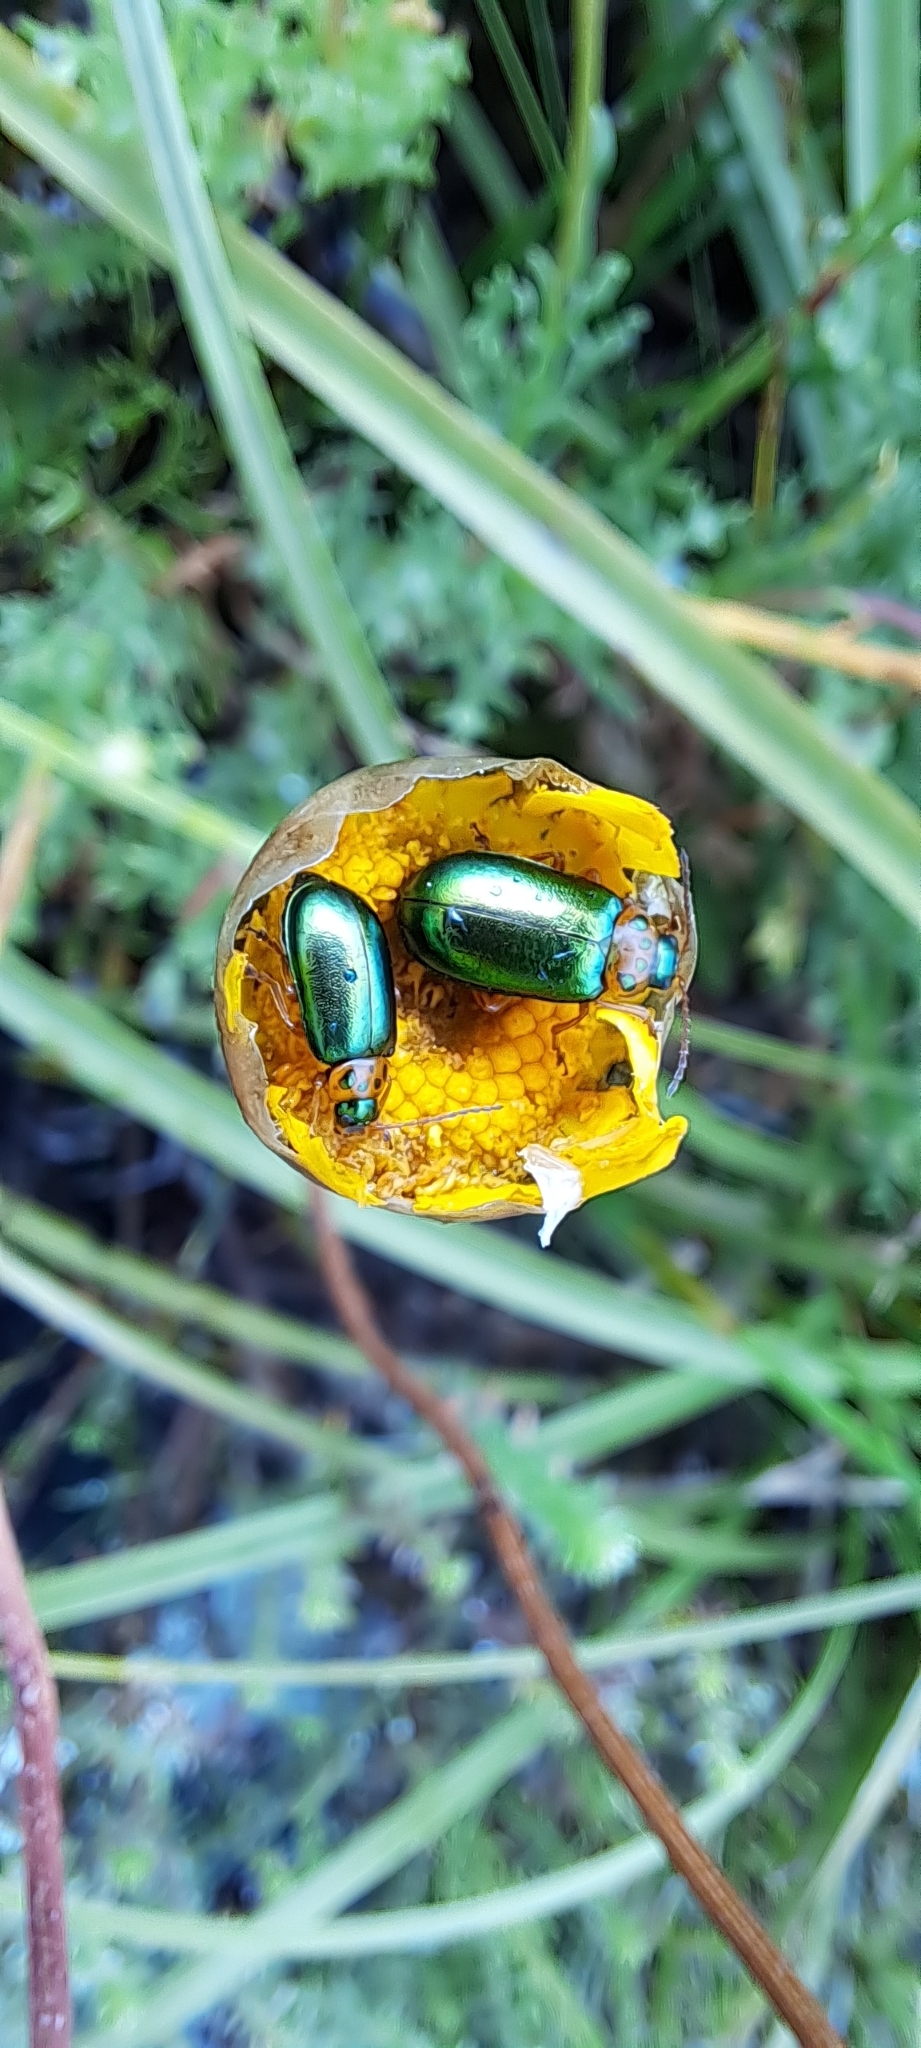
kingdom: Animalia
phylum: Arthropoda
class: Insecta
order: Coleoptera
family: Chrysomelidae
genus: Palaeophylia
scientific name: Palaeophylia
